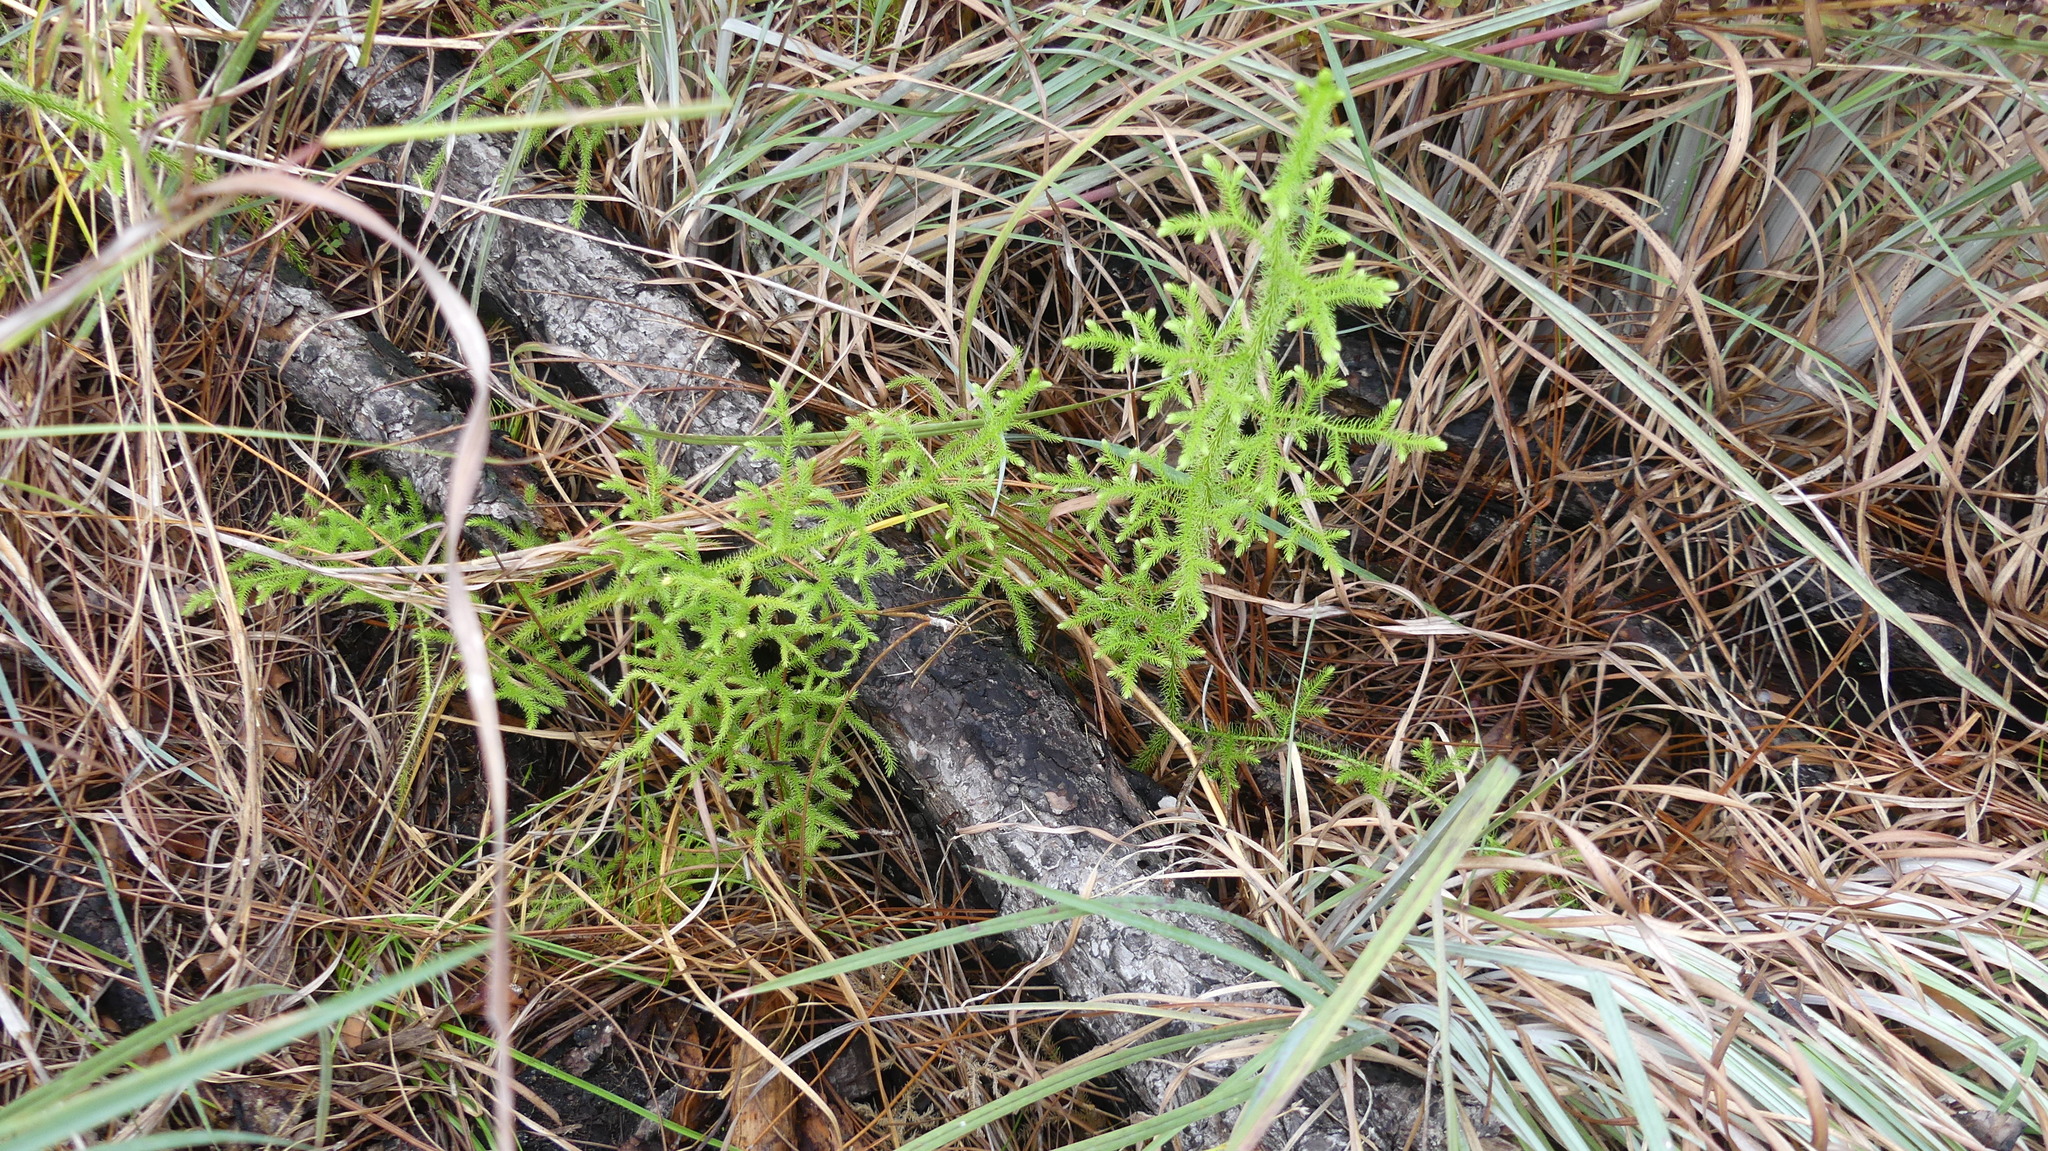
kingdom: Plantae
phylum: Tracheophyta
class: Lycopodiopsida
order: Lycopodiales
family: Lycopodiaceae
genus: Palhinhaea
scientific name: Palhinhaea cernua
